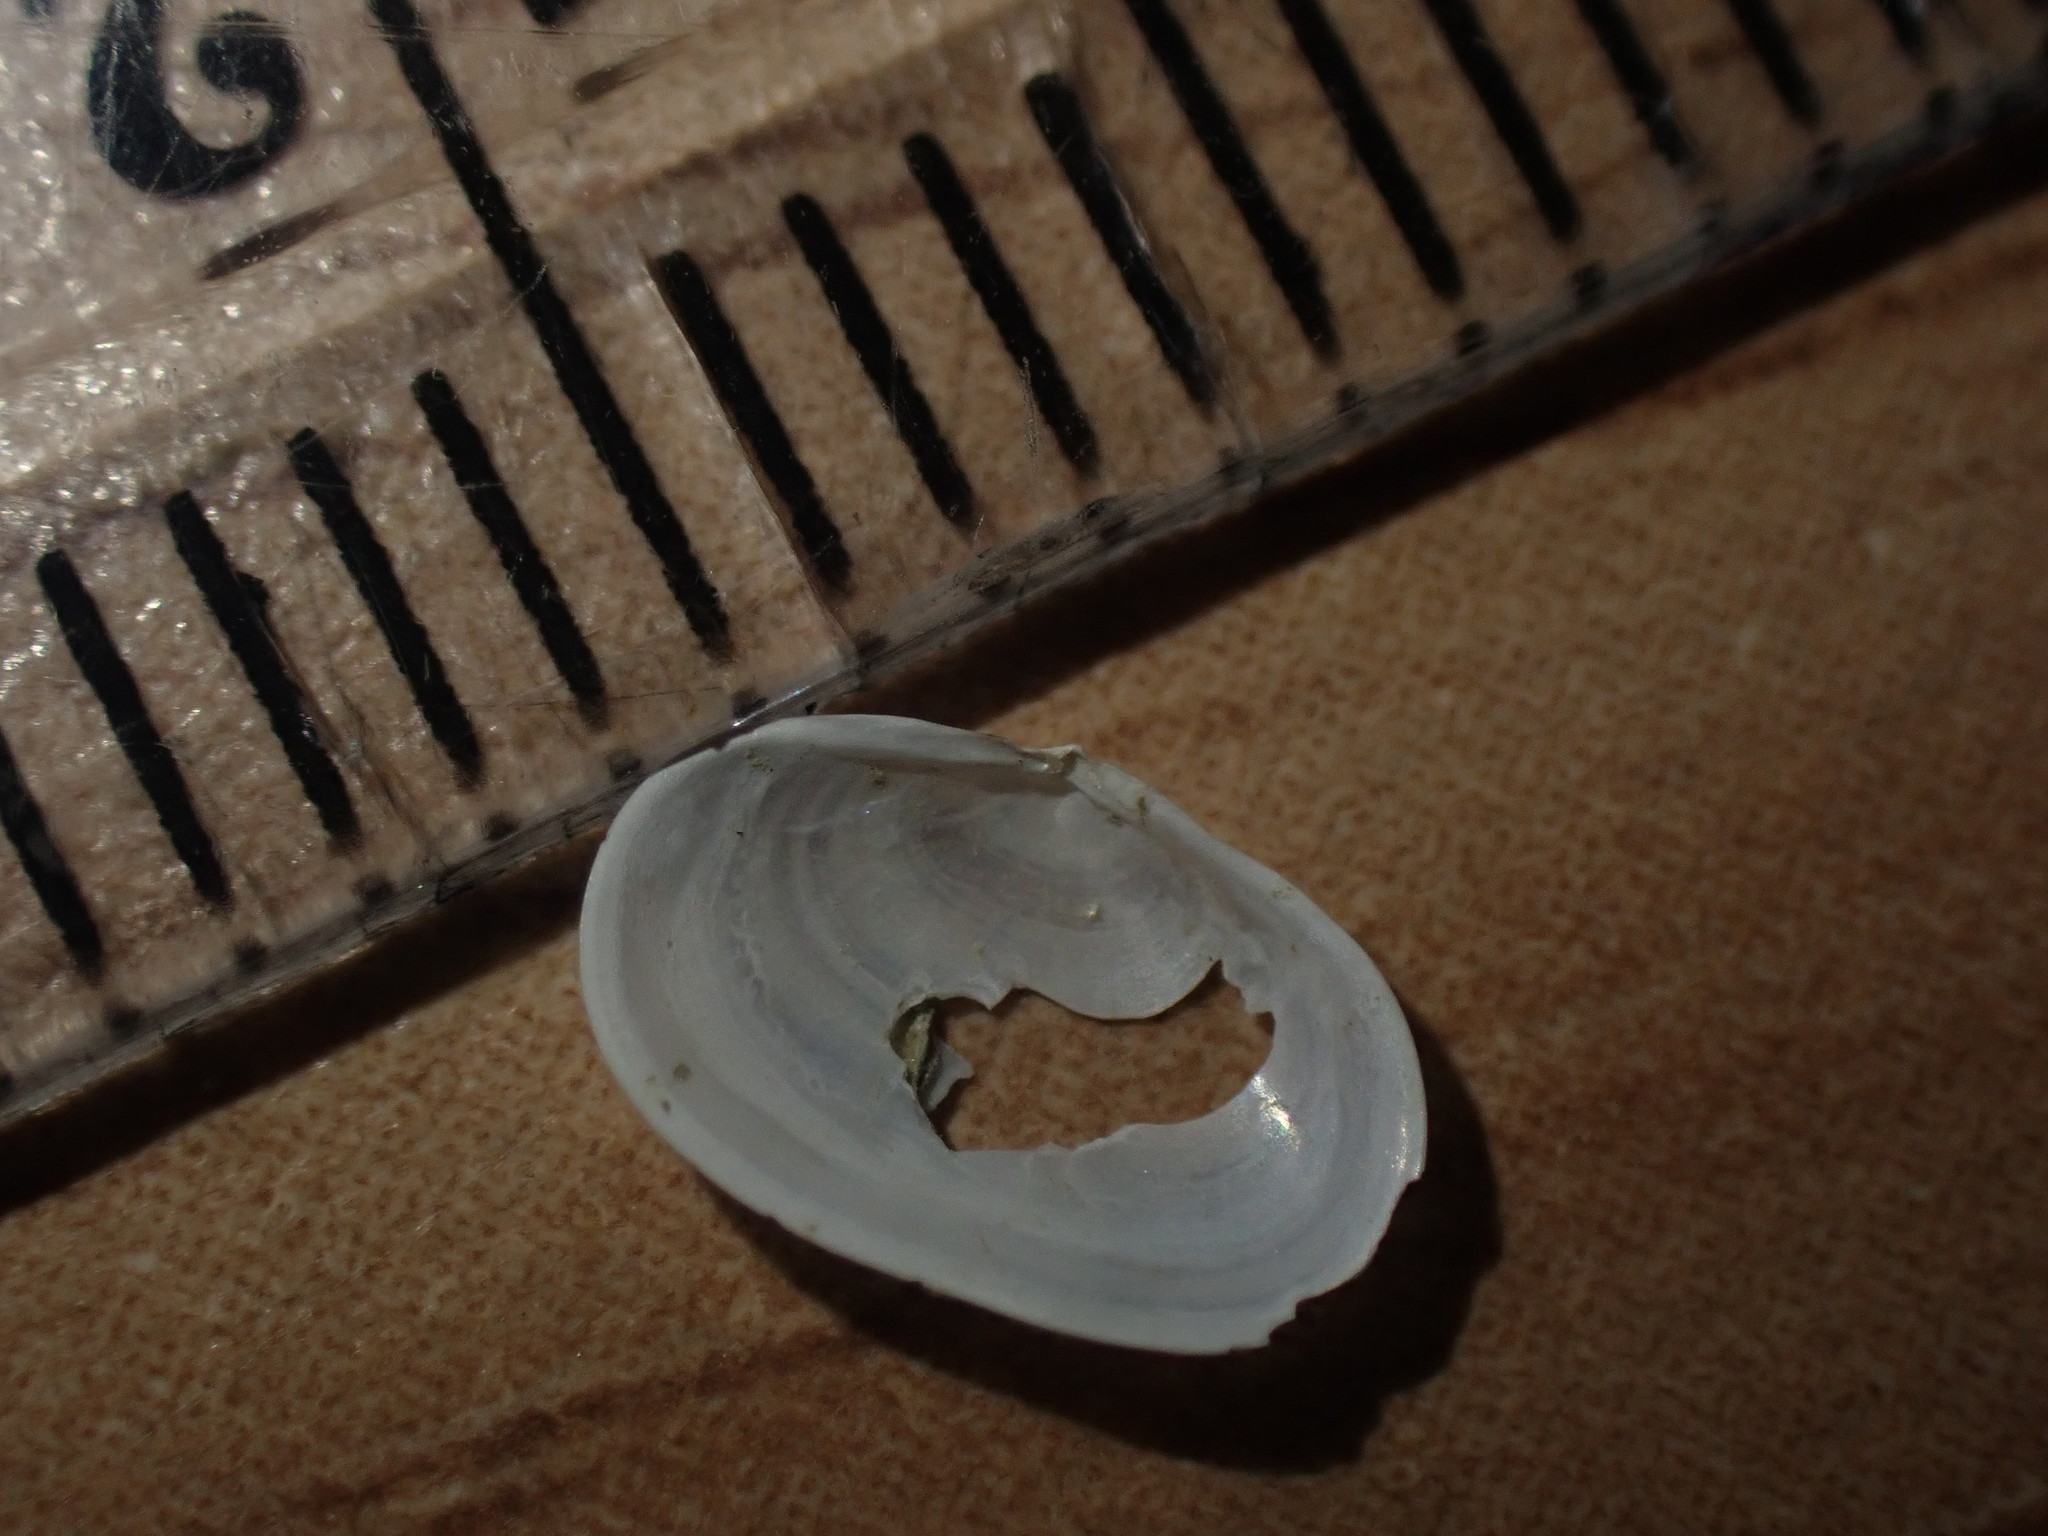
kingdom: Animalia
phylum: Mollusca
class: Bivalvia
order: Galeommatida
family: Galeommatidae
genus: Scintillona
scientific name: Scintillona zelandica
